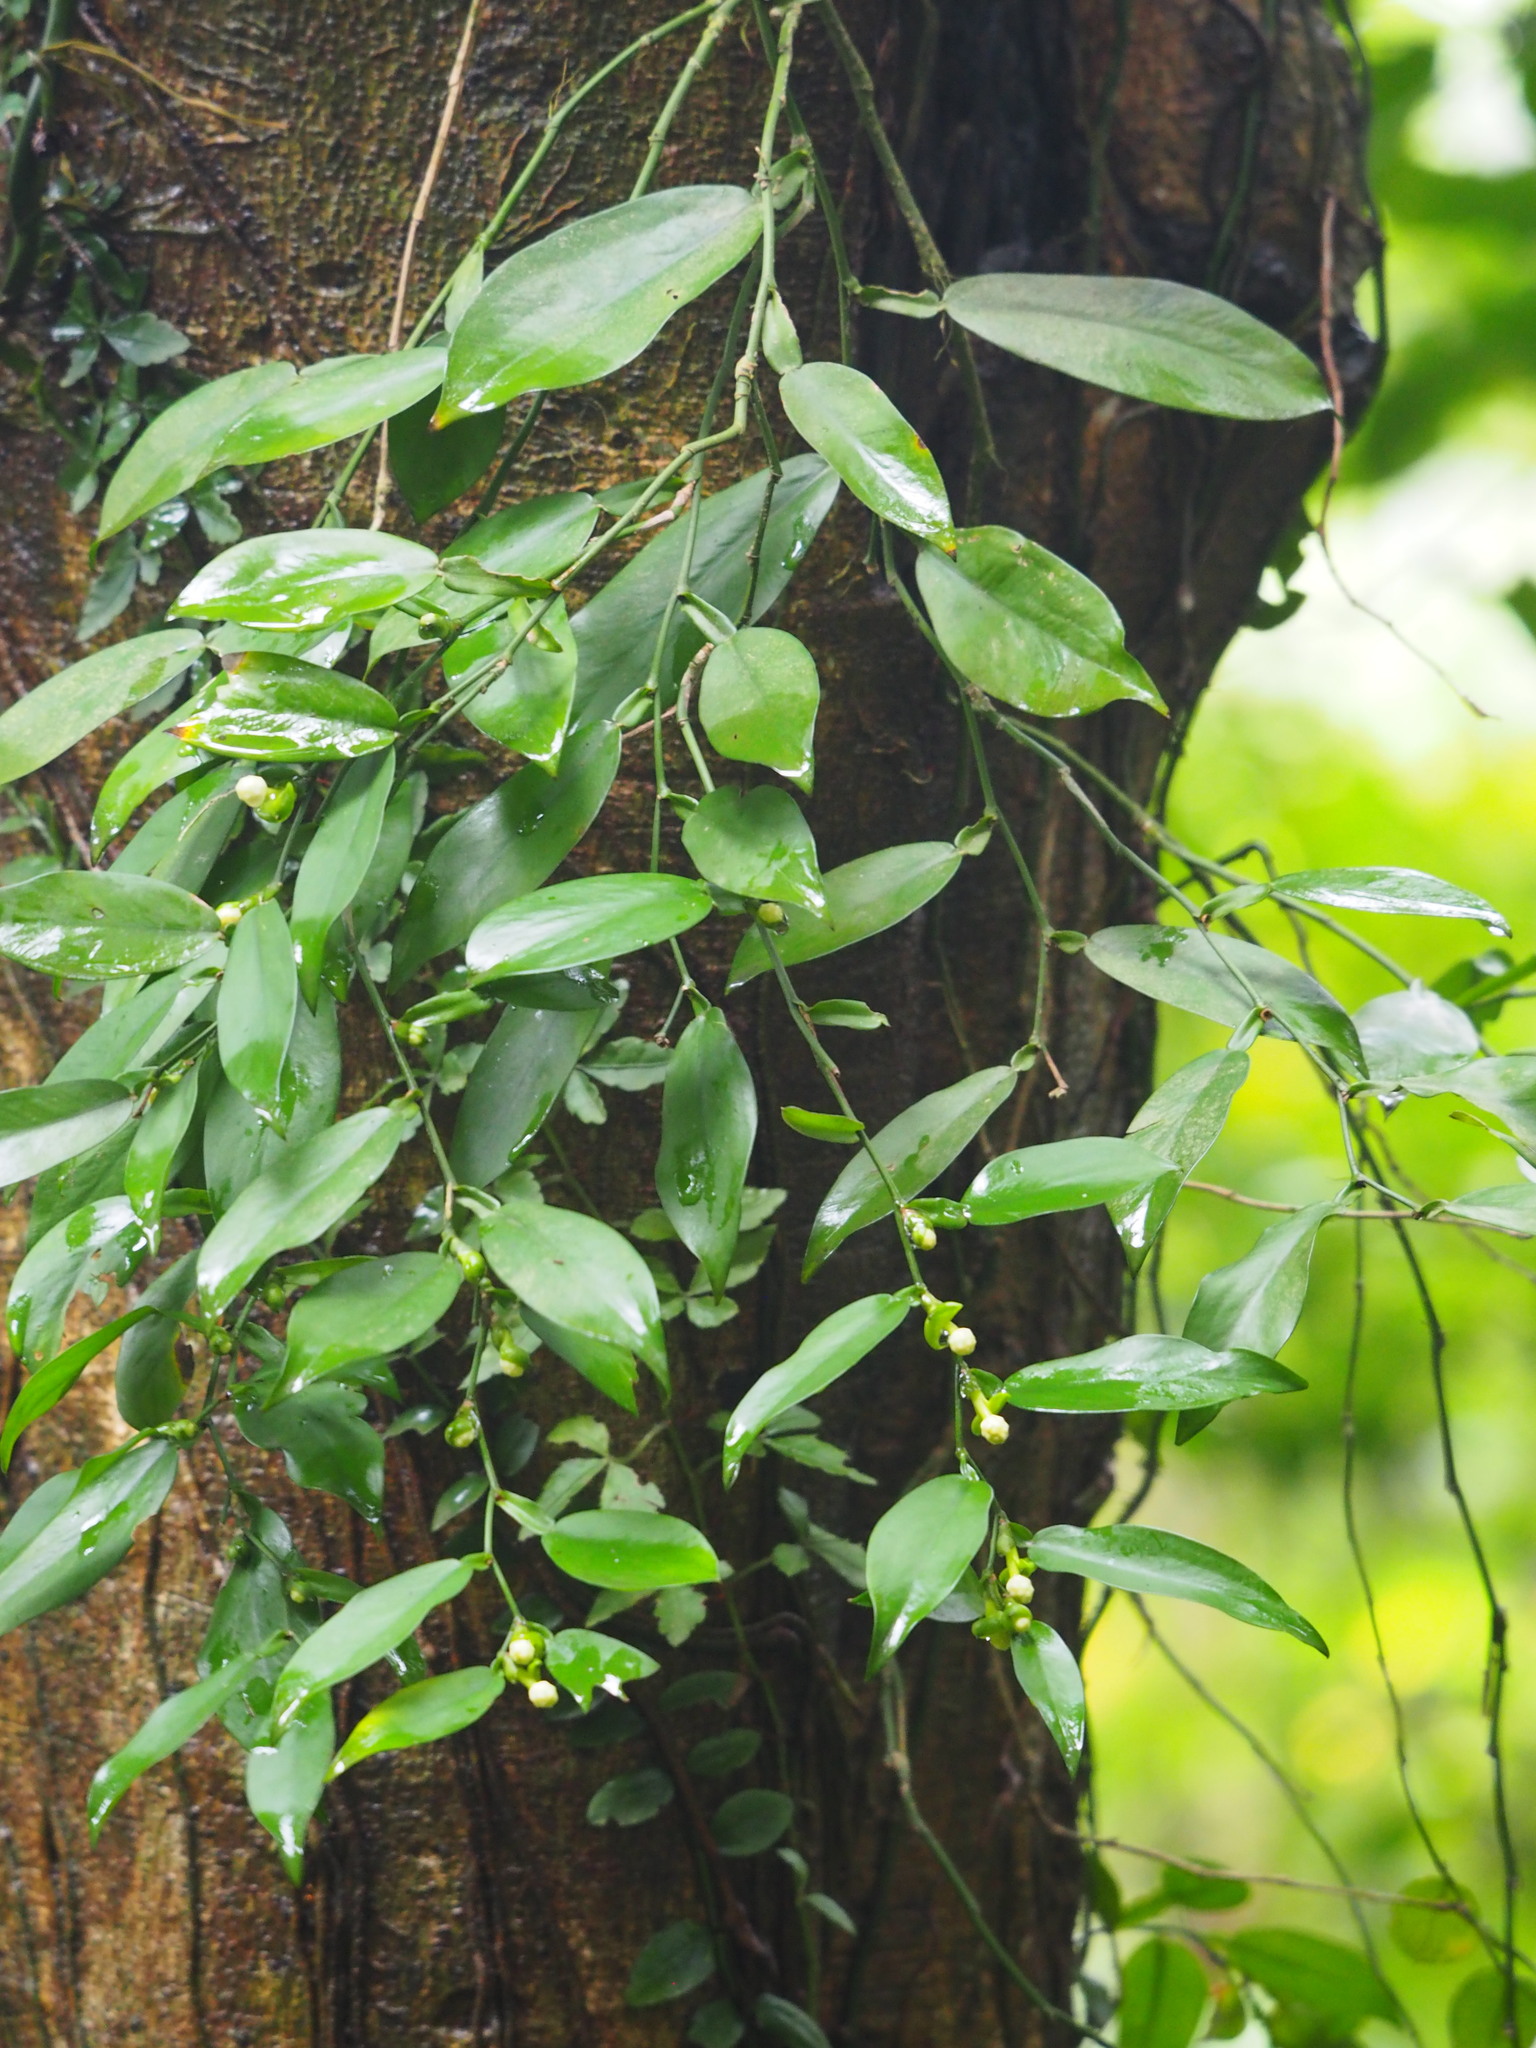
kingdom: Plantae
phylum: Tracheophyta
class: Liliopsida
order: Alismatales
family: Araceae
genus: Pothos
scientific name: Pothos chinensis
